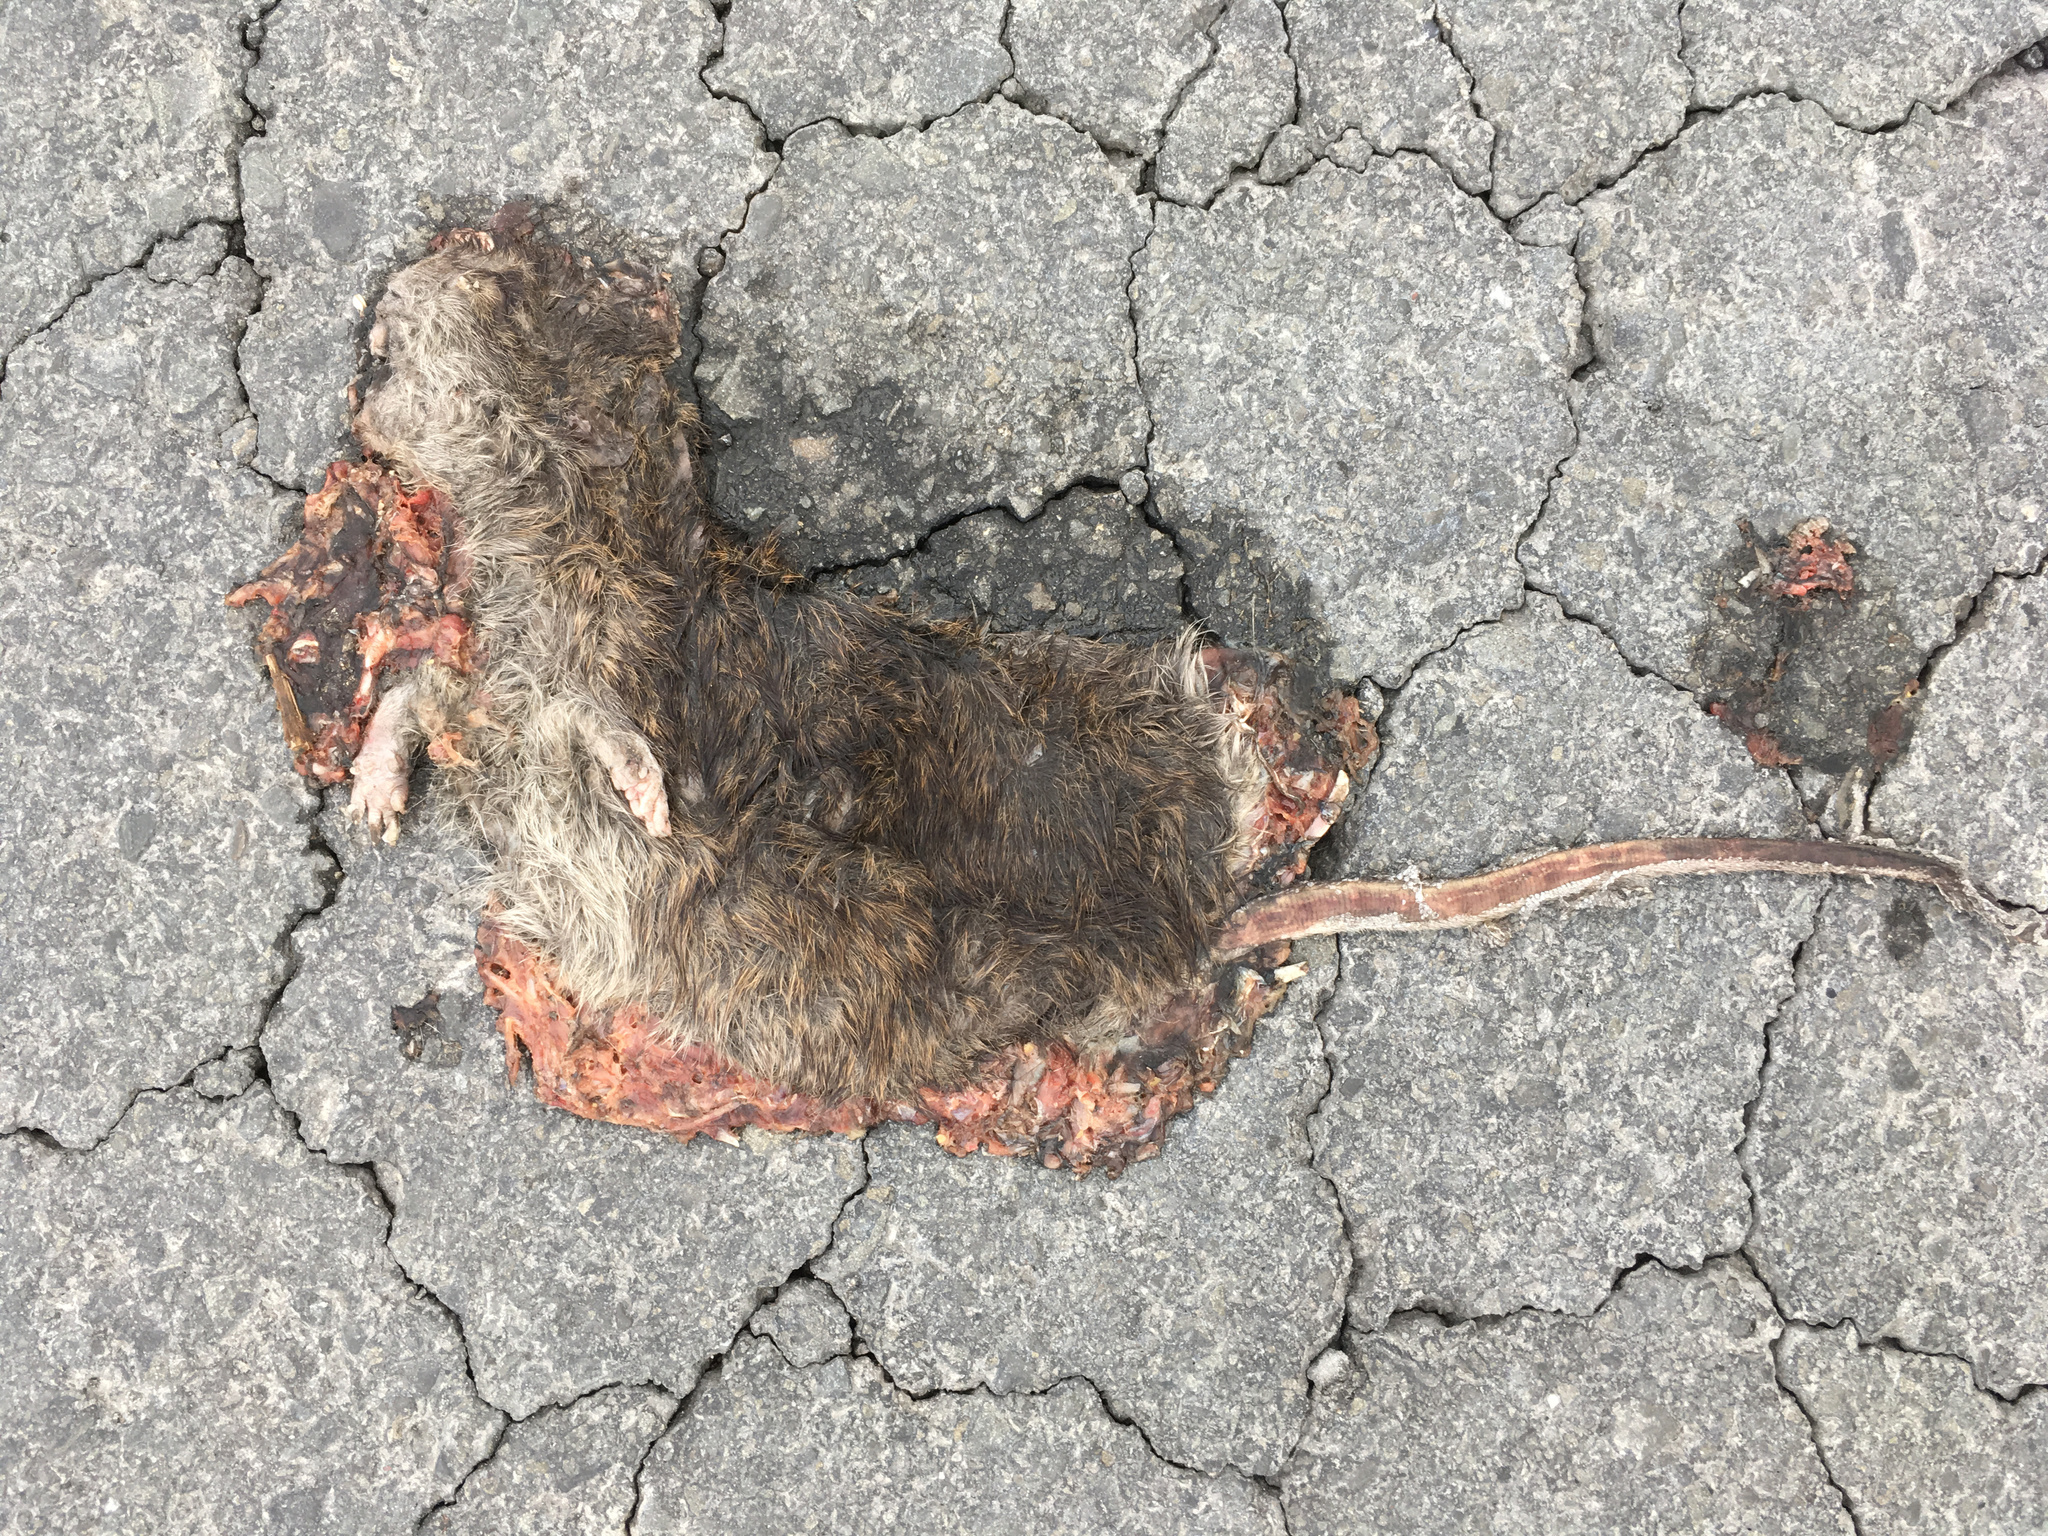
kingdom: Animalia
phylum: Chordata
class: Mammalia
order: Rodentia
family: Muridae
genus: Rattus
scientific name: Rattus norvegicus
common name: Brown rat
